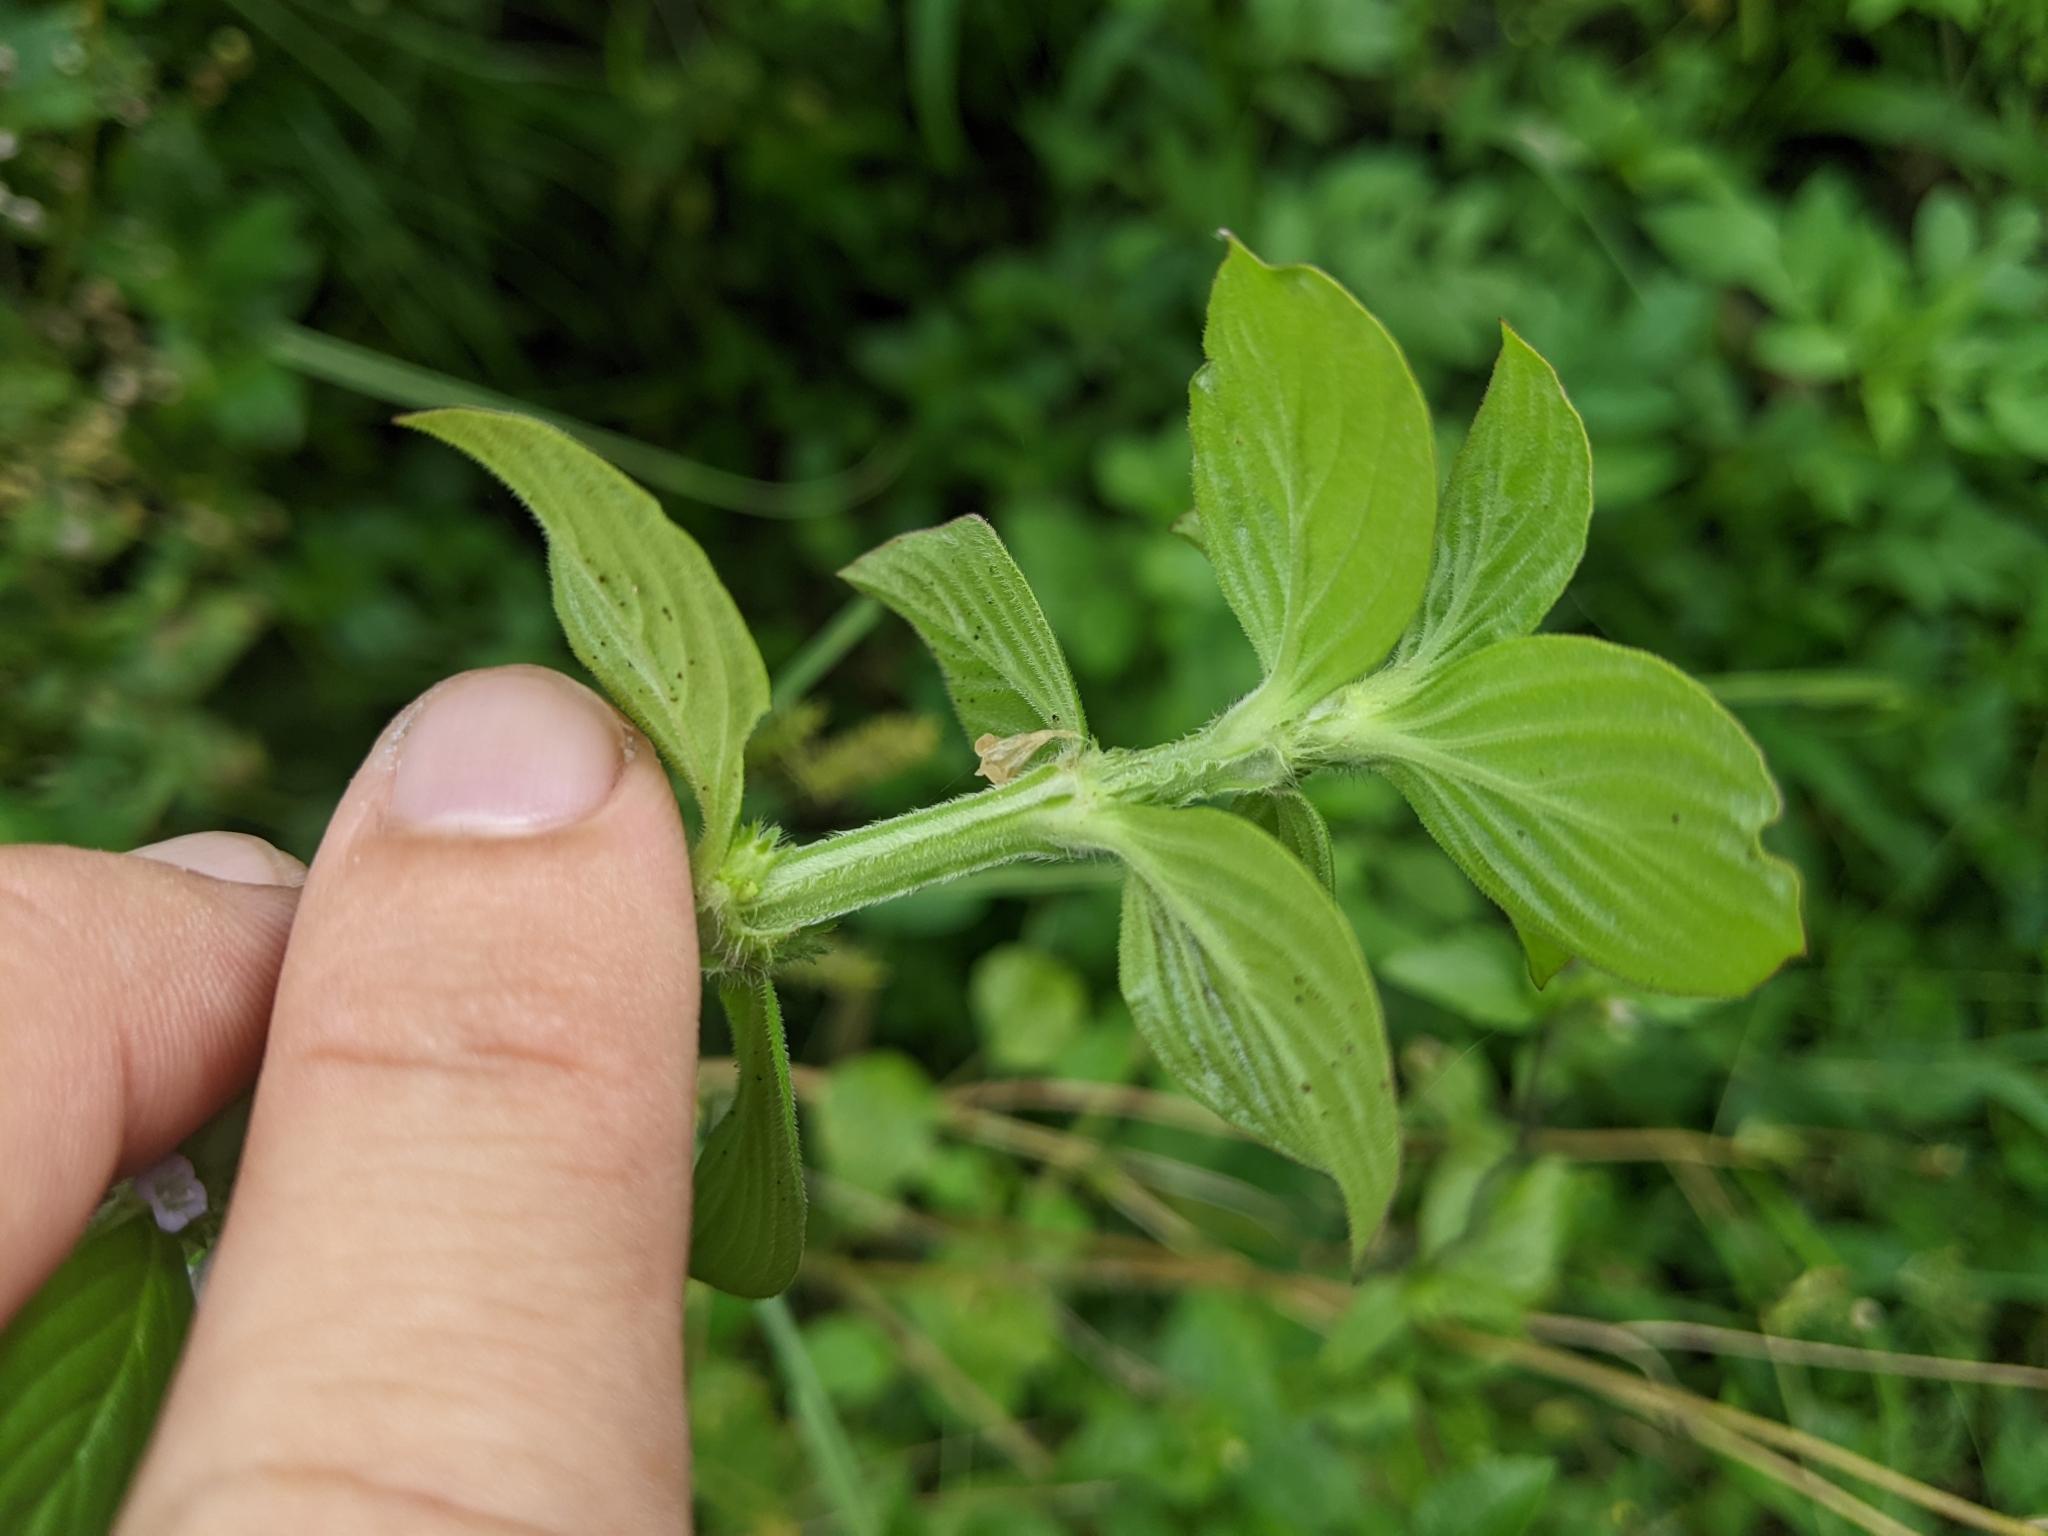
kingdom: Plantae
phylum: Tracheophyta
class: Magnoliopsida
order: Gentianales
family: Rubiaceae
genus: Spermacoce
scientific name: Spermacoce latifolia
